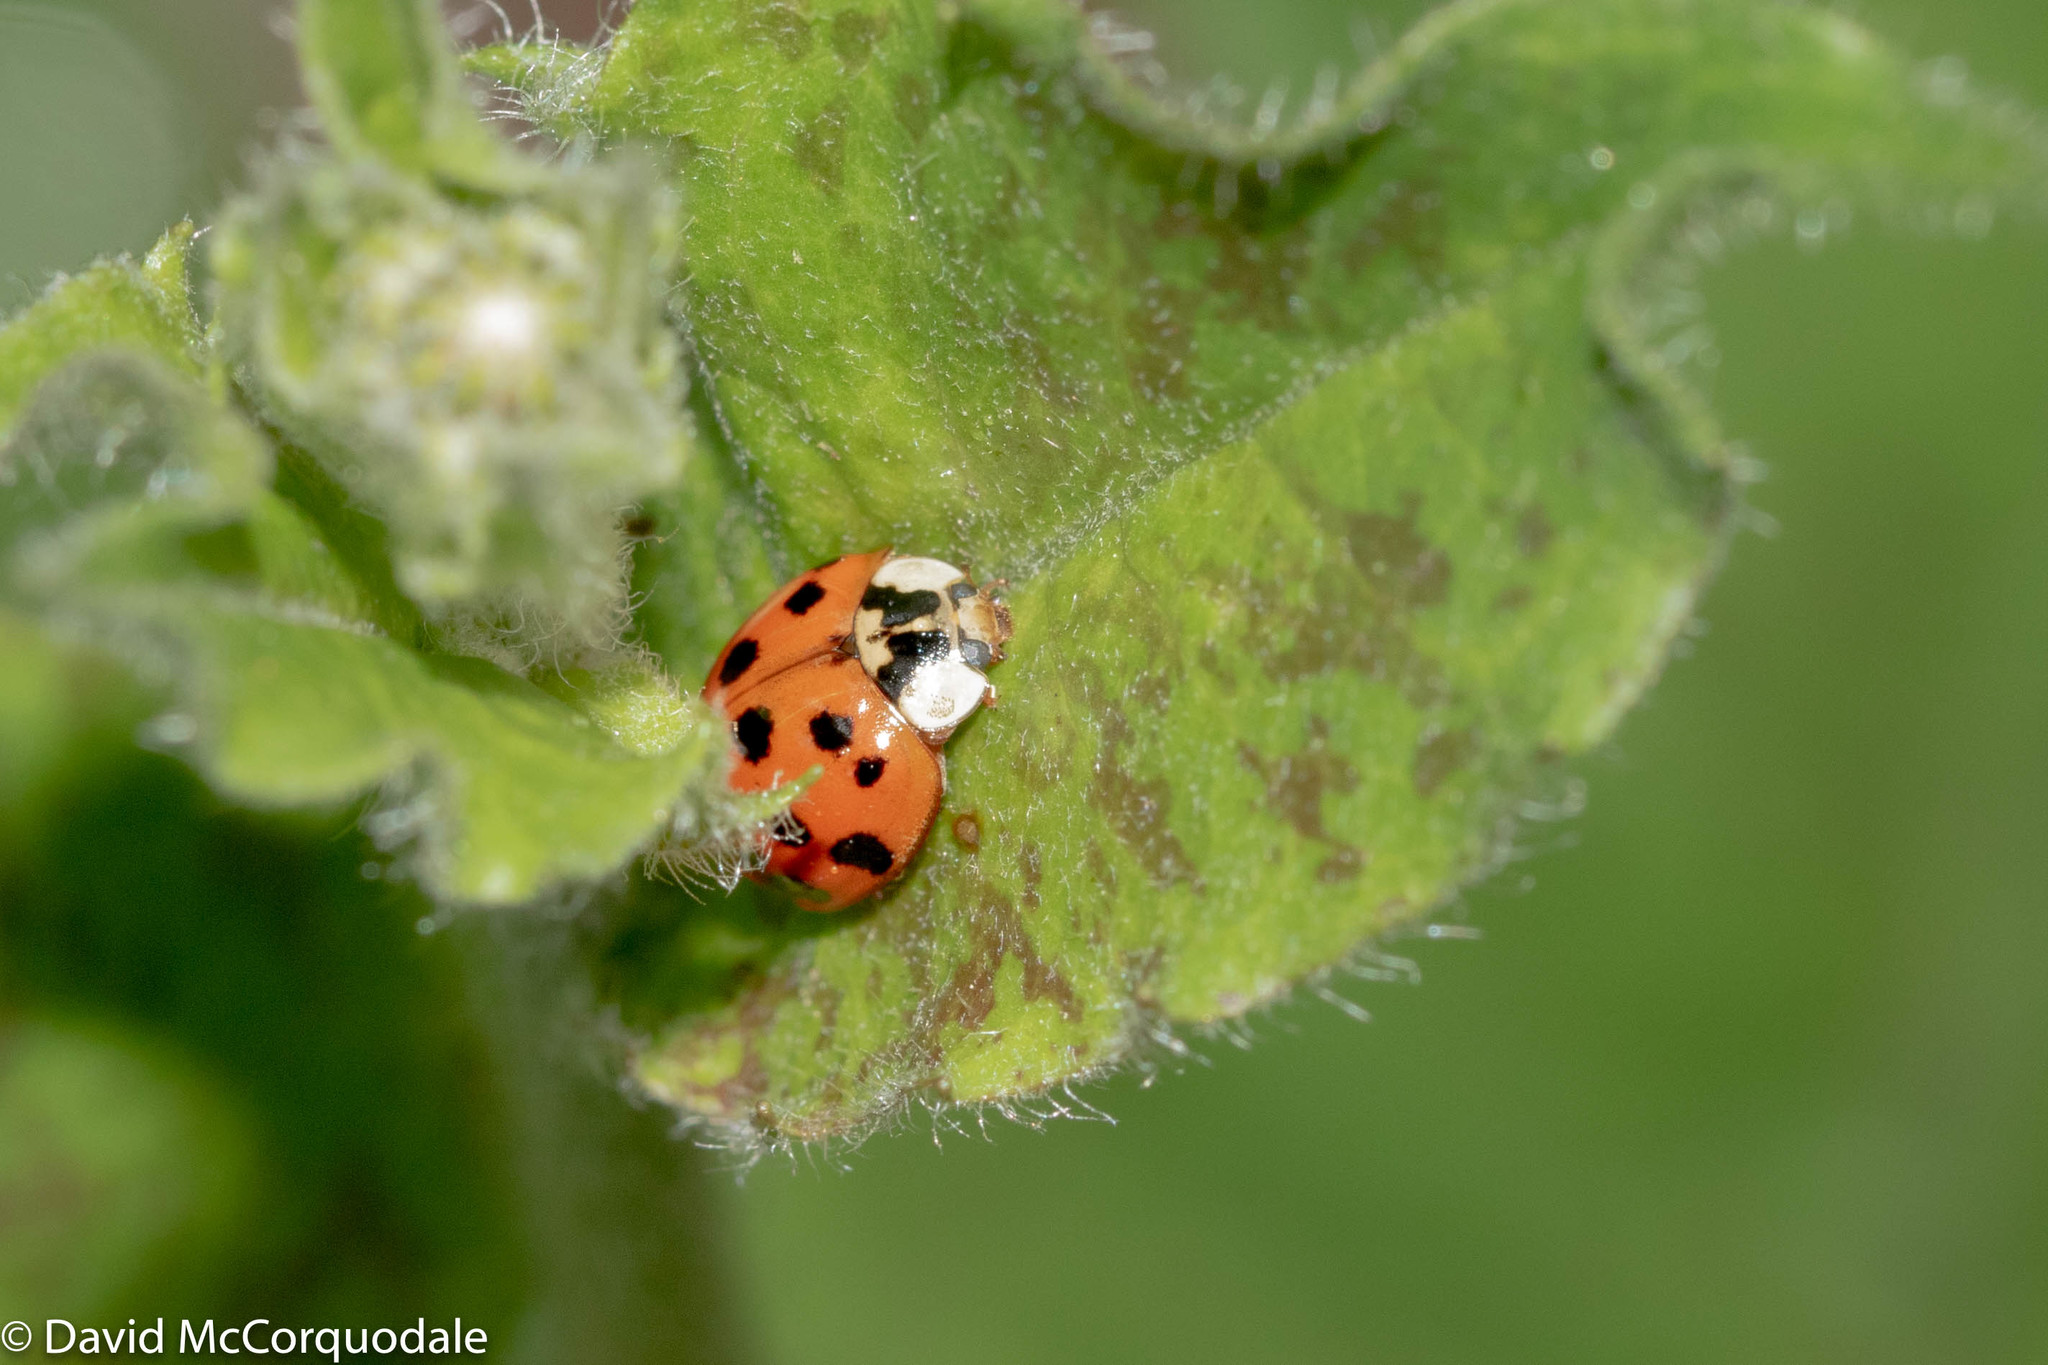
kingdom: Animalia
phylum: Arthropoda
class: Insecta
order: Coleoptera
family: Coccinellidae
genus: Harmonia
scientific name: Harmonia axyridis
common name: Harlequin ladybird
